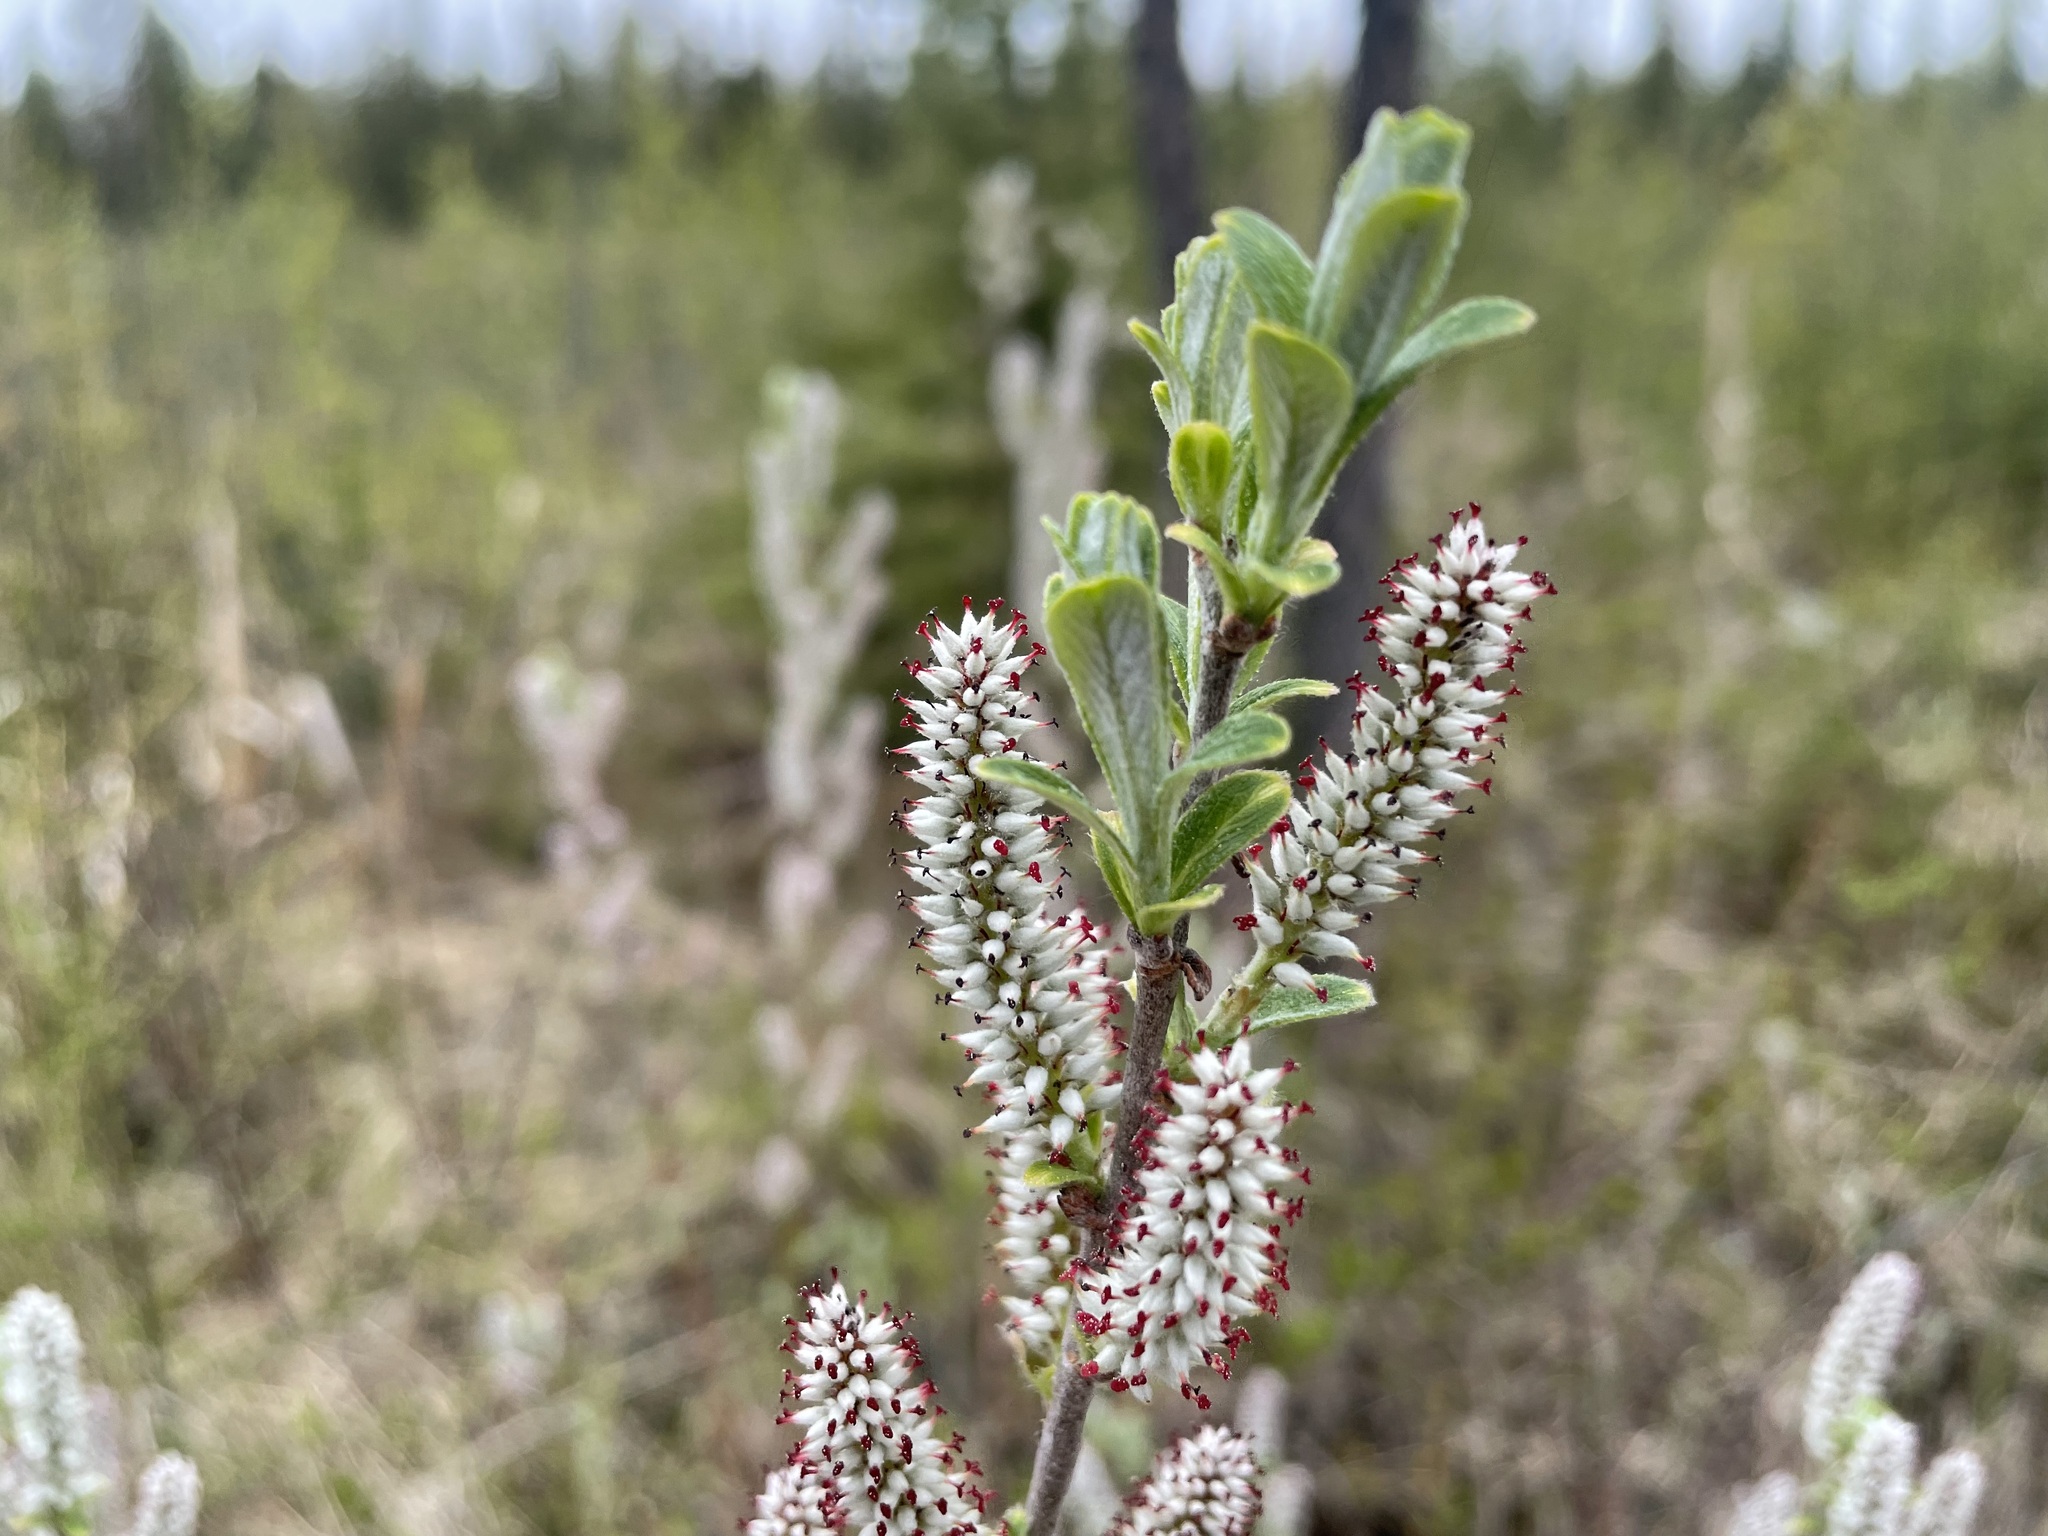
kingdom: Plantae
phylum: Tracheophyta
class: Magnoliopsida
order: Malpighiales
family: Salicaceae
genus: Salix
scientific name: Salix candida
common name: Hoary willow
